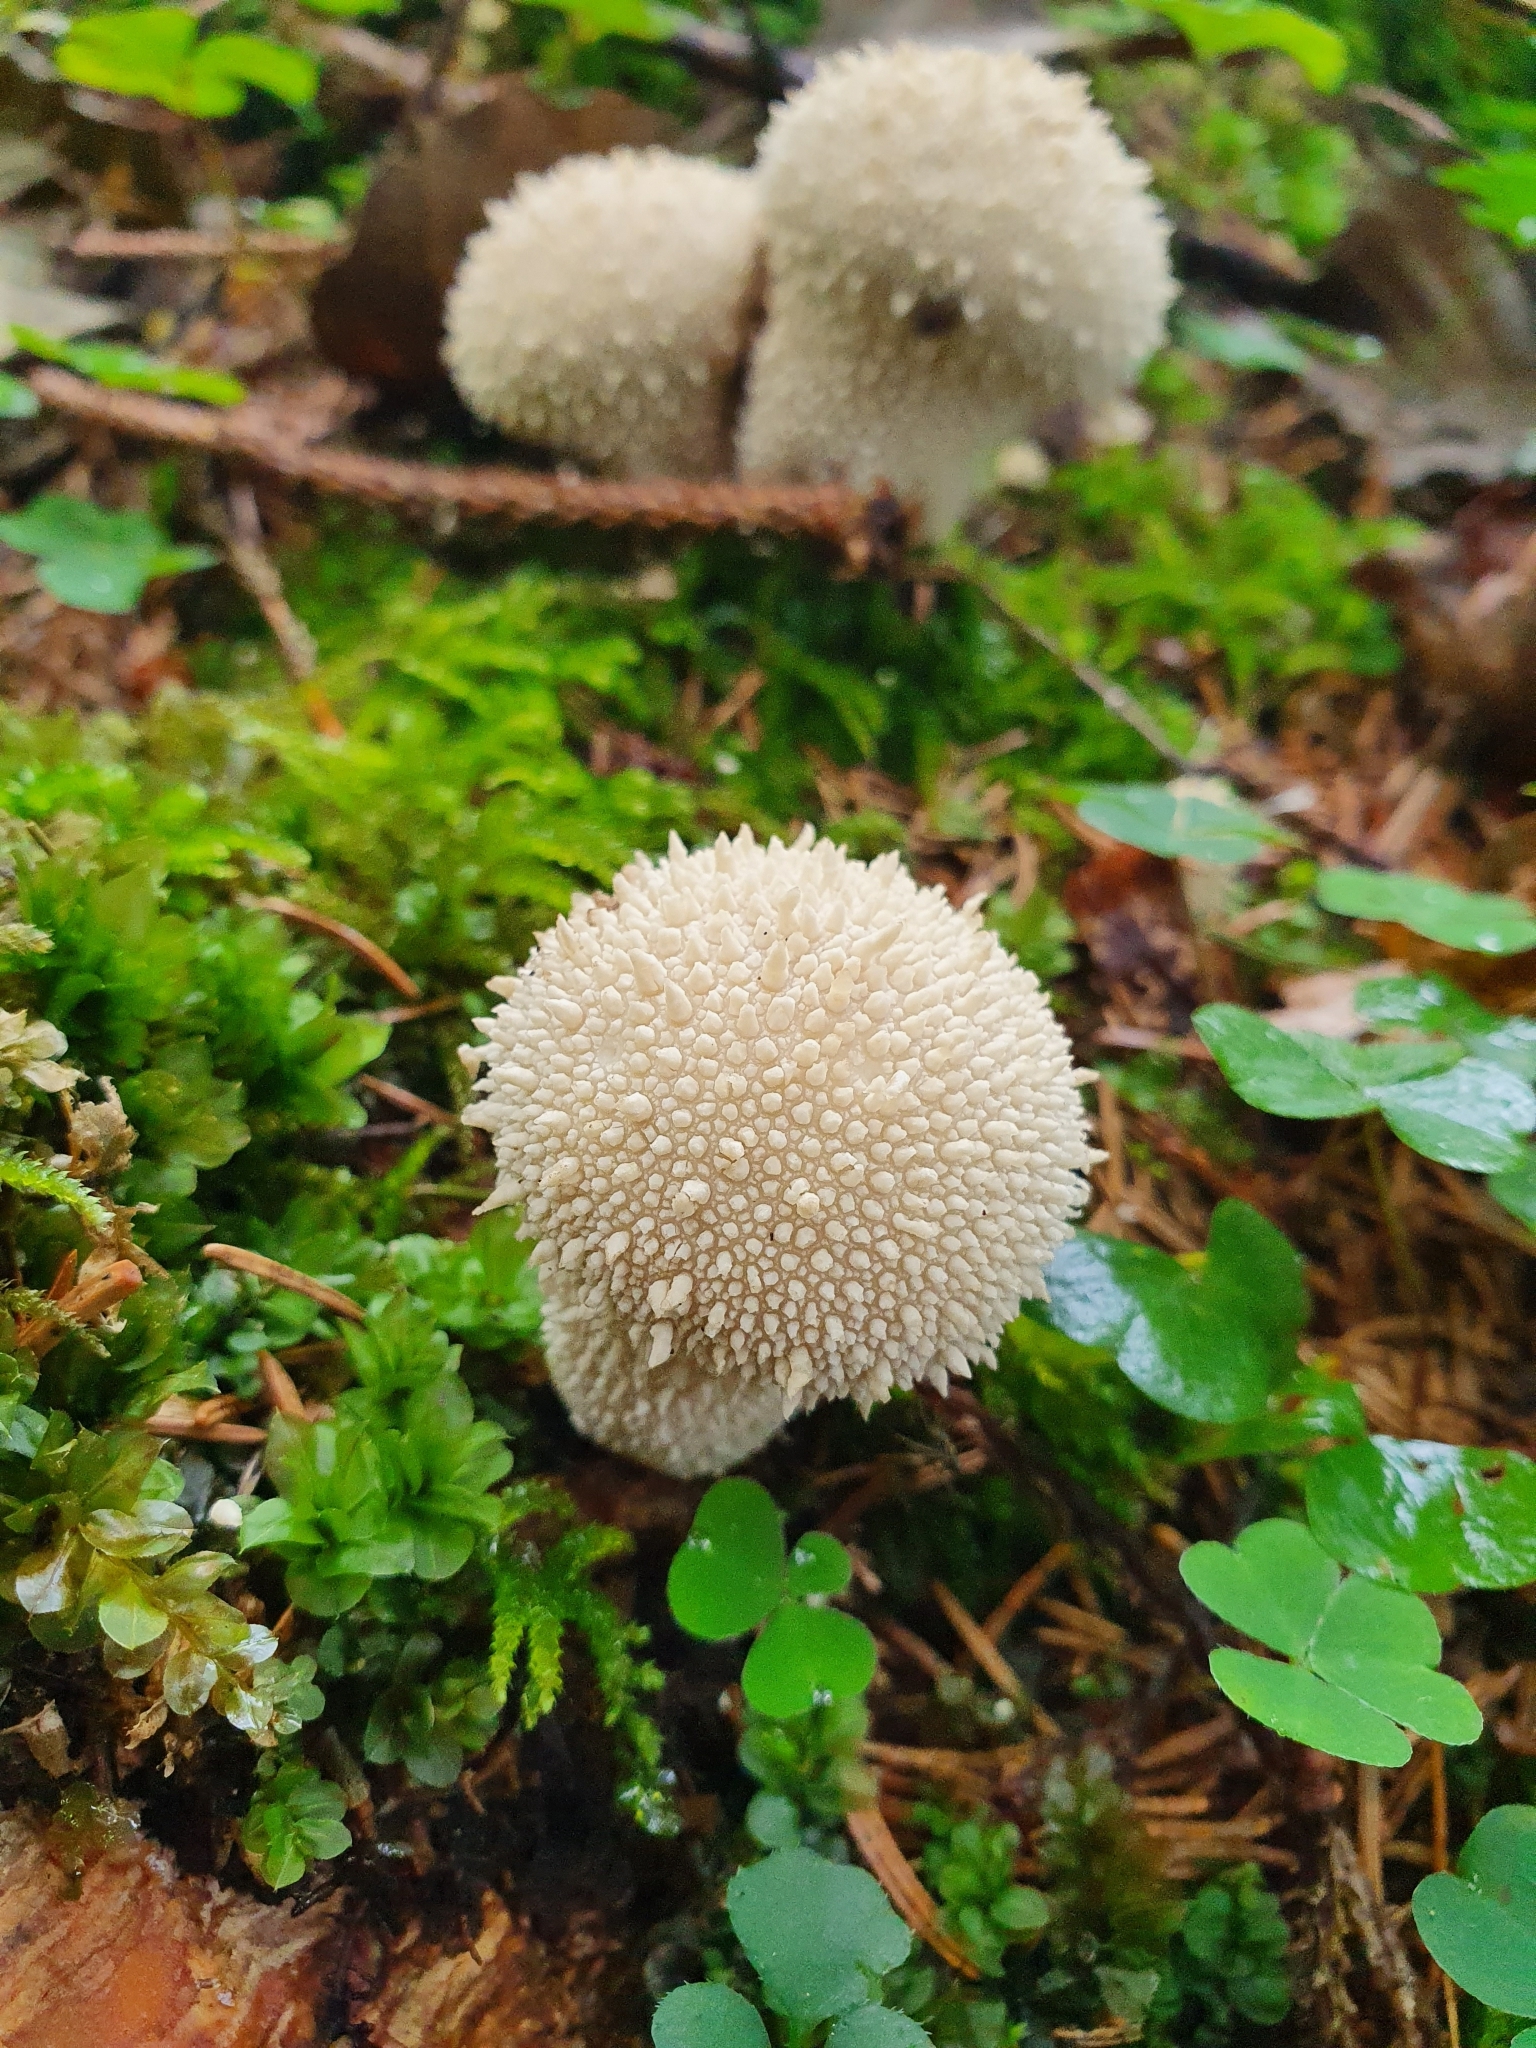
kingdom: Fungi
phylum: Basidiomycota
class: Agaricomycetes
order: Agaricales
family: Lycoperdaceae
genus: Lycoperdon
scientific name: Lycoperdon perlatum
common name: Common puffball
